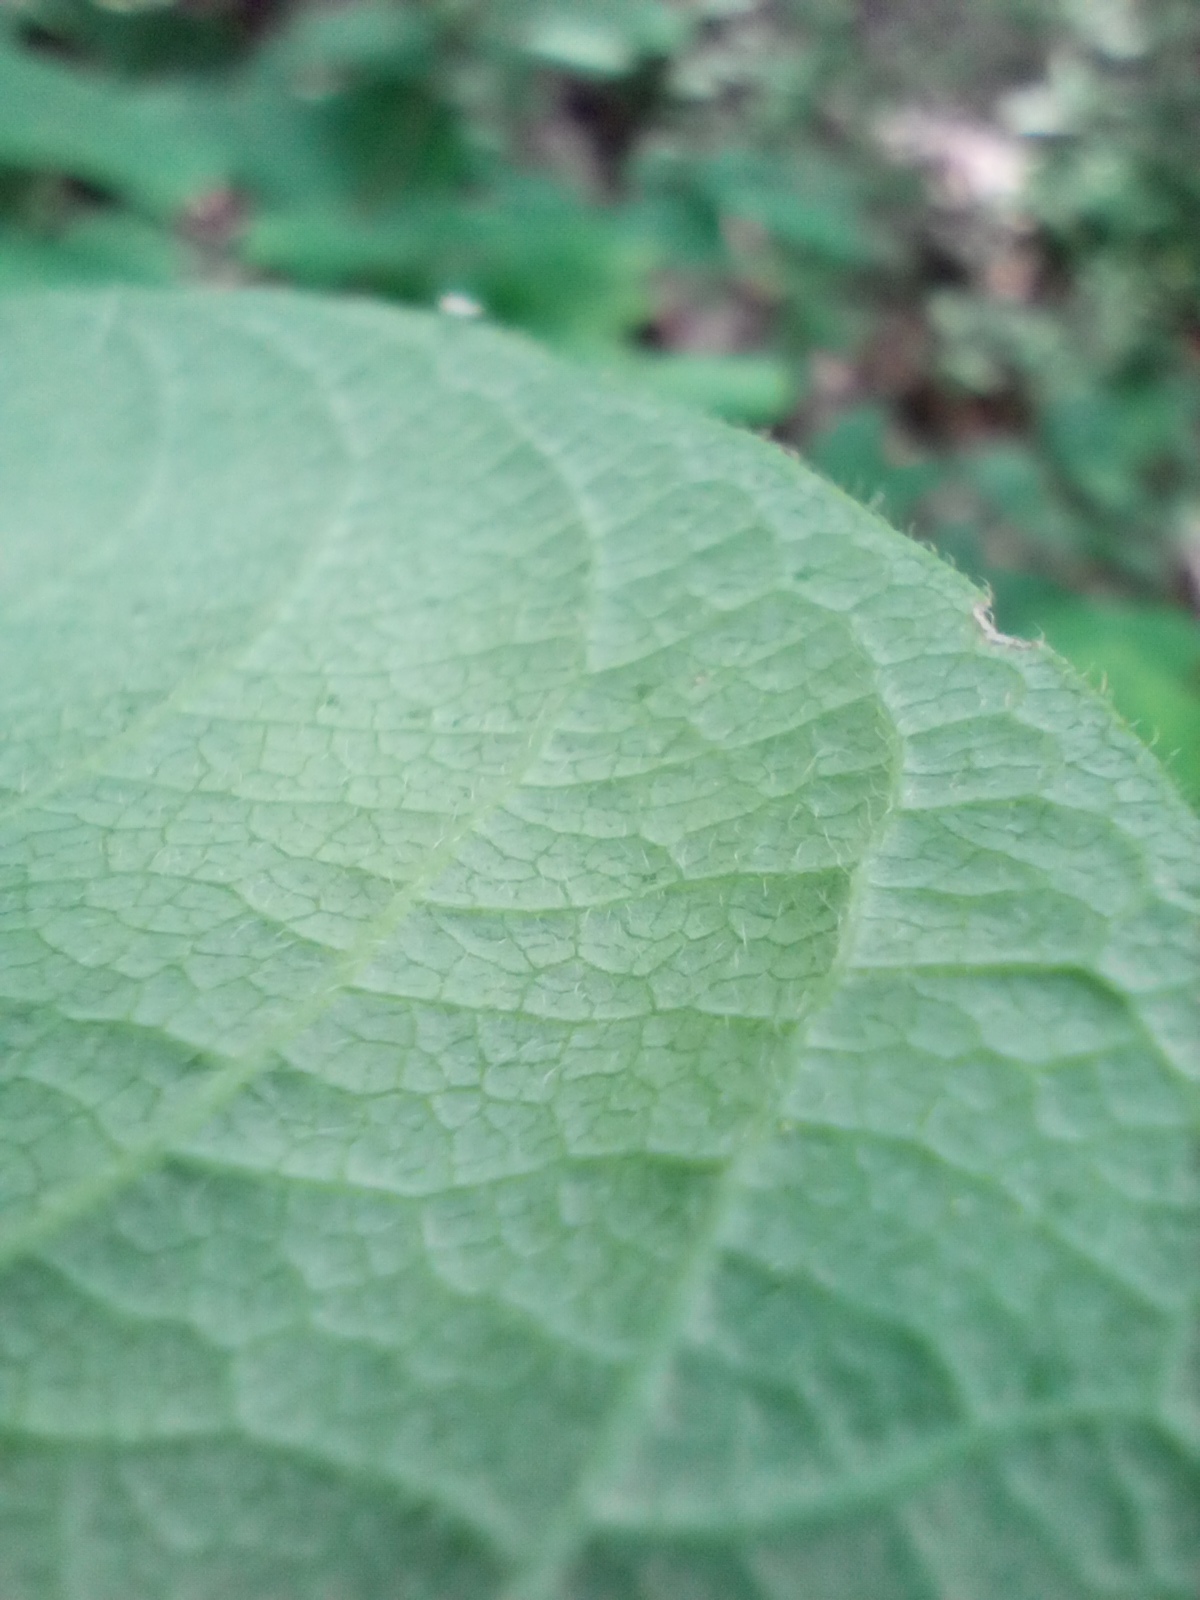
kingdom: Plantae
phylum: Tracheophyta
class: Magnoliopsida
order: Dipsacales
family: Caprifoliaceae
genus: Lonicera
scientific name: Lonicera xylosteum
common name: Fly honeysuckle
